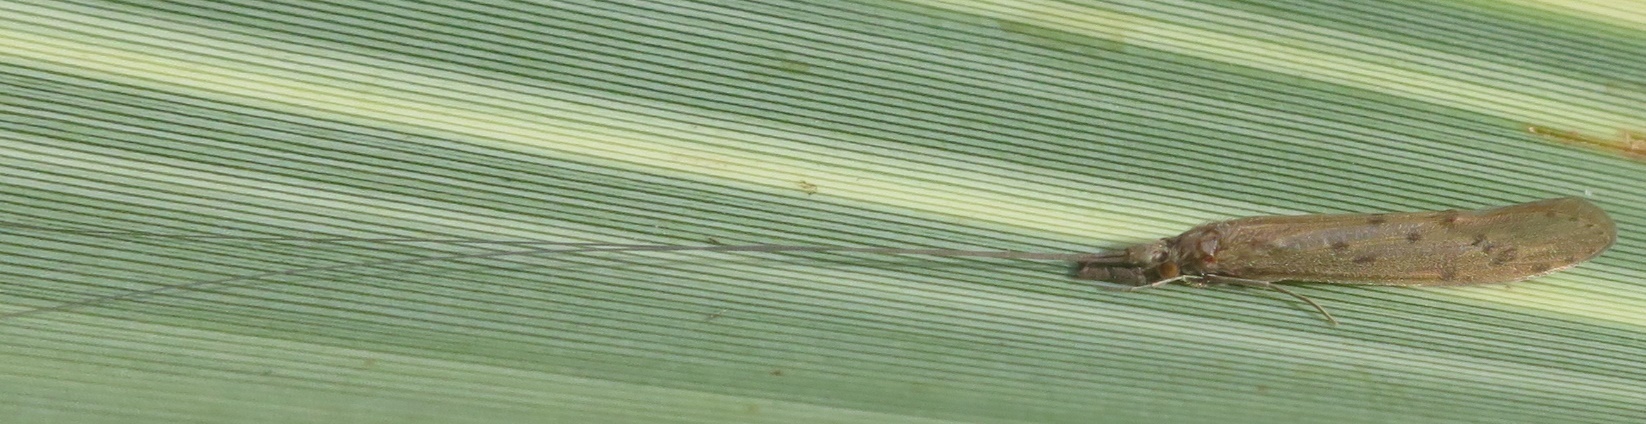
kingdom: Animalia
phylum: Arthropoda
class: Insecta
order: Trichoptera
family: Leptoceridae
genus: Oecetis
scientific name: Oecetis
